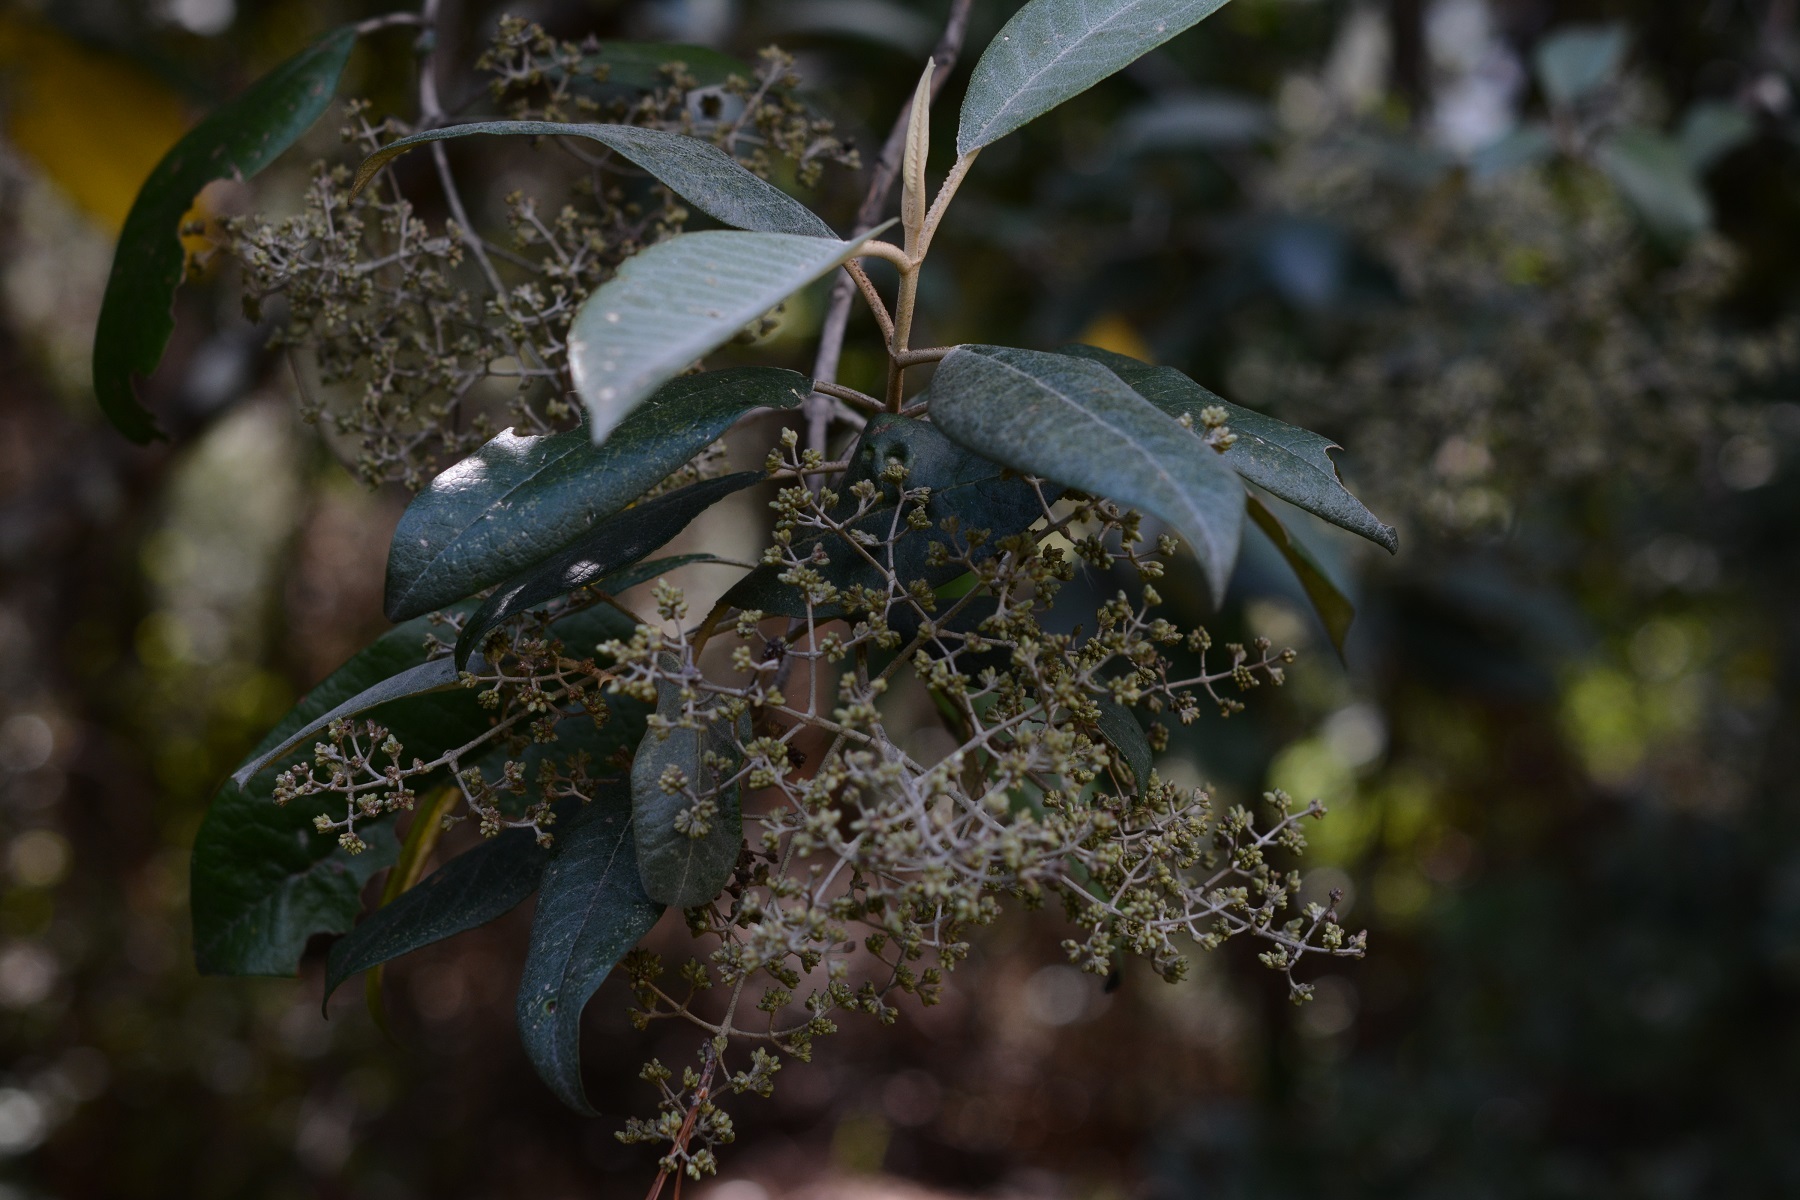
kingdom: Plantae
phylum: Tracheophyta
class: Magnoliopsida
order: Lamiales
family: Scrophulariaceae
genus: Buddleja
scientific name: Buddleja cordata
